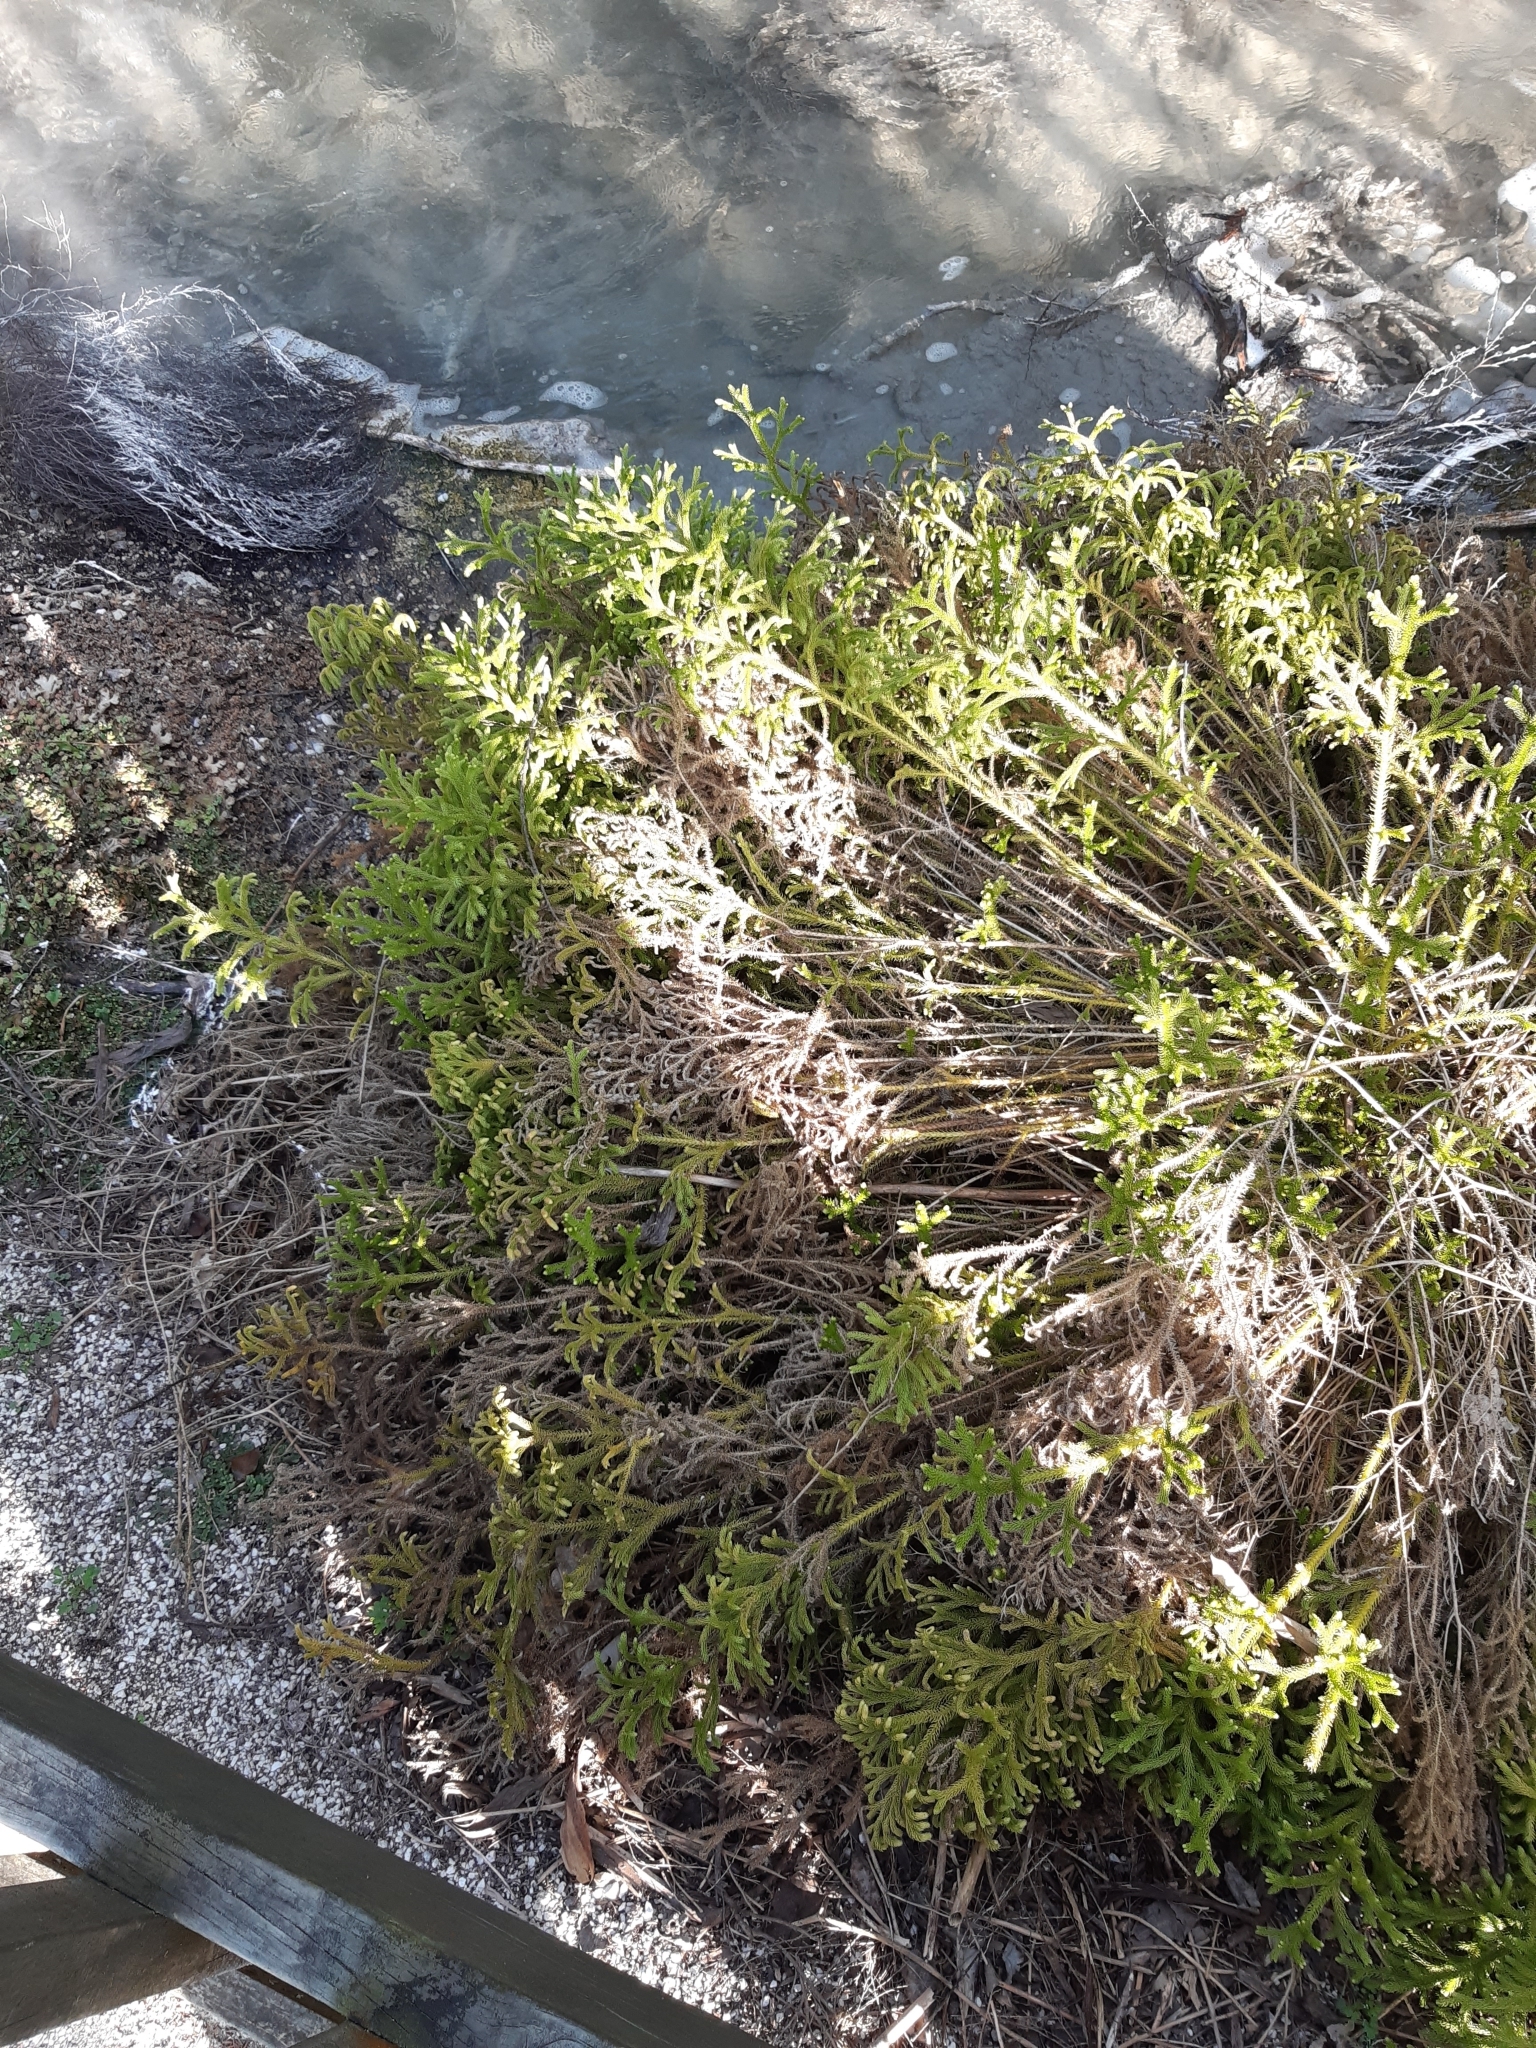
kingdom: Plantae
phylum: Tracheophyta
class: Lycopodiopsida
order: Lycopodiales
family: Lycopodiaceae
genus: Palhinhaea
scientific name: Palhinhaea cernua
